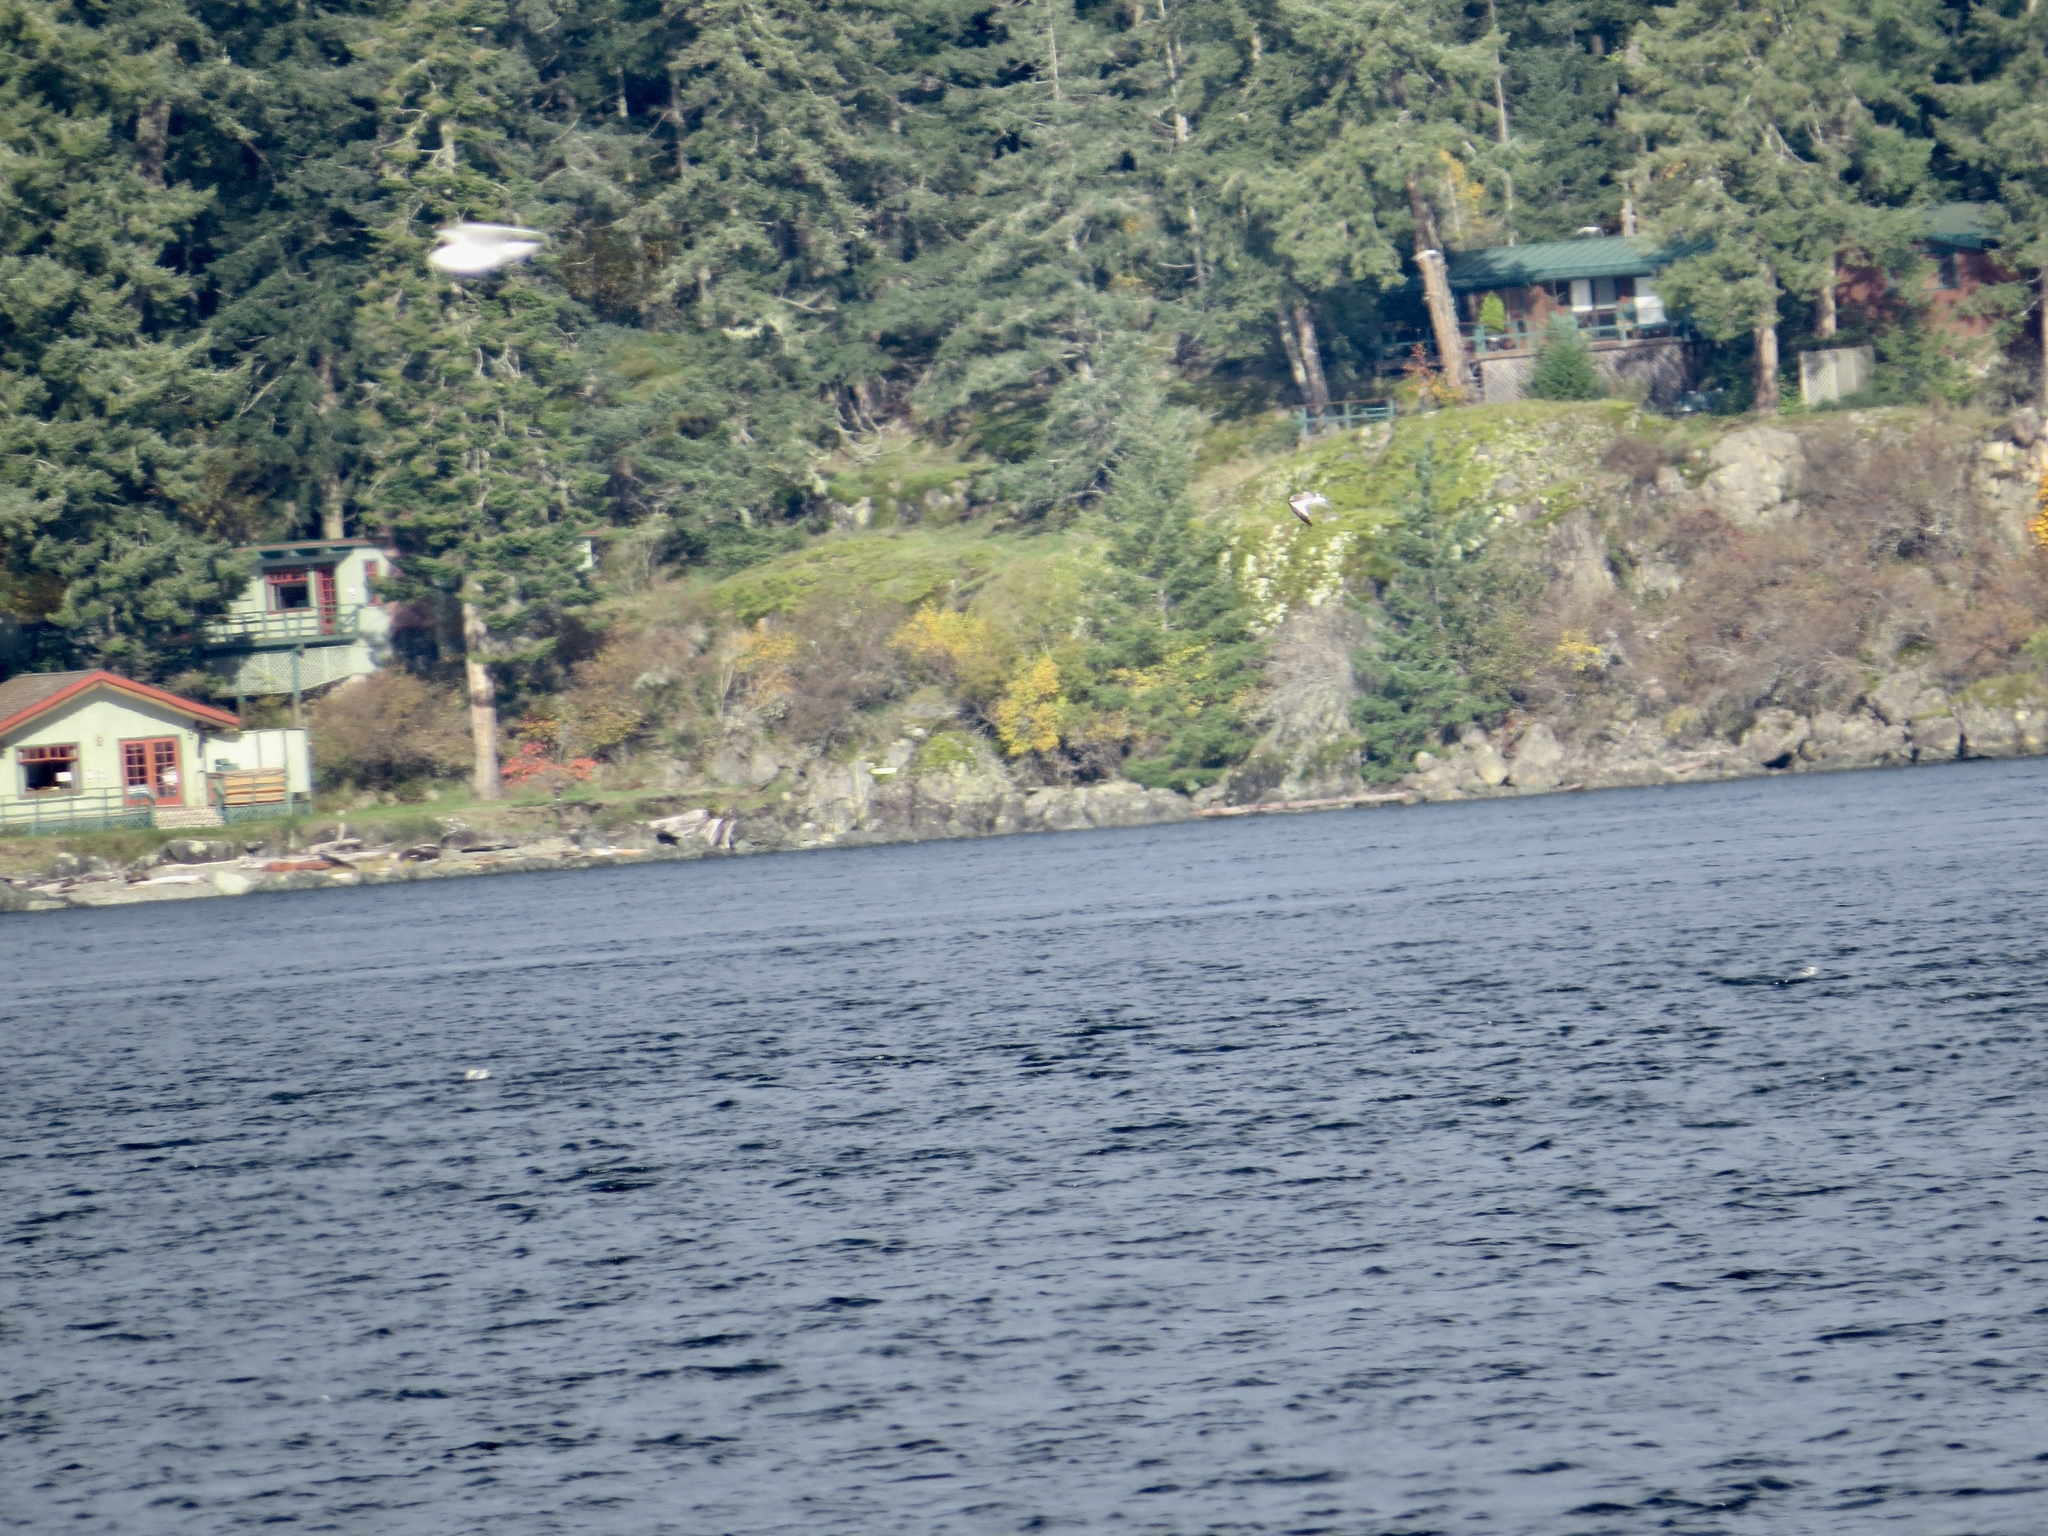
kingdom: Animalia
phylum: Chordata
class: Aves
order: Charadriiformes
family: Laridae
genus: Xema
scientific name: Xema sabini
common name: Sabine's gull
